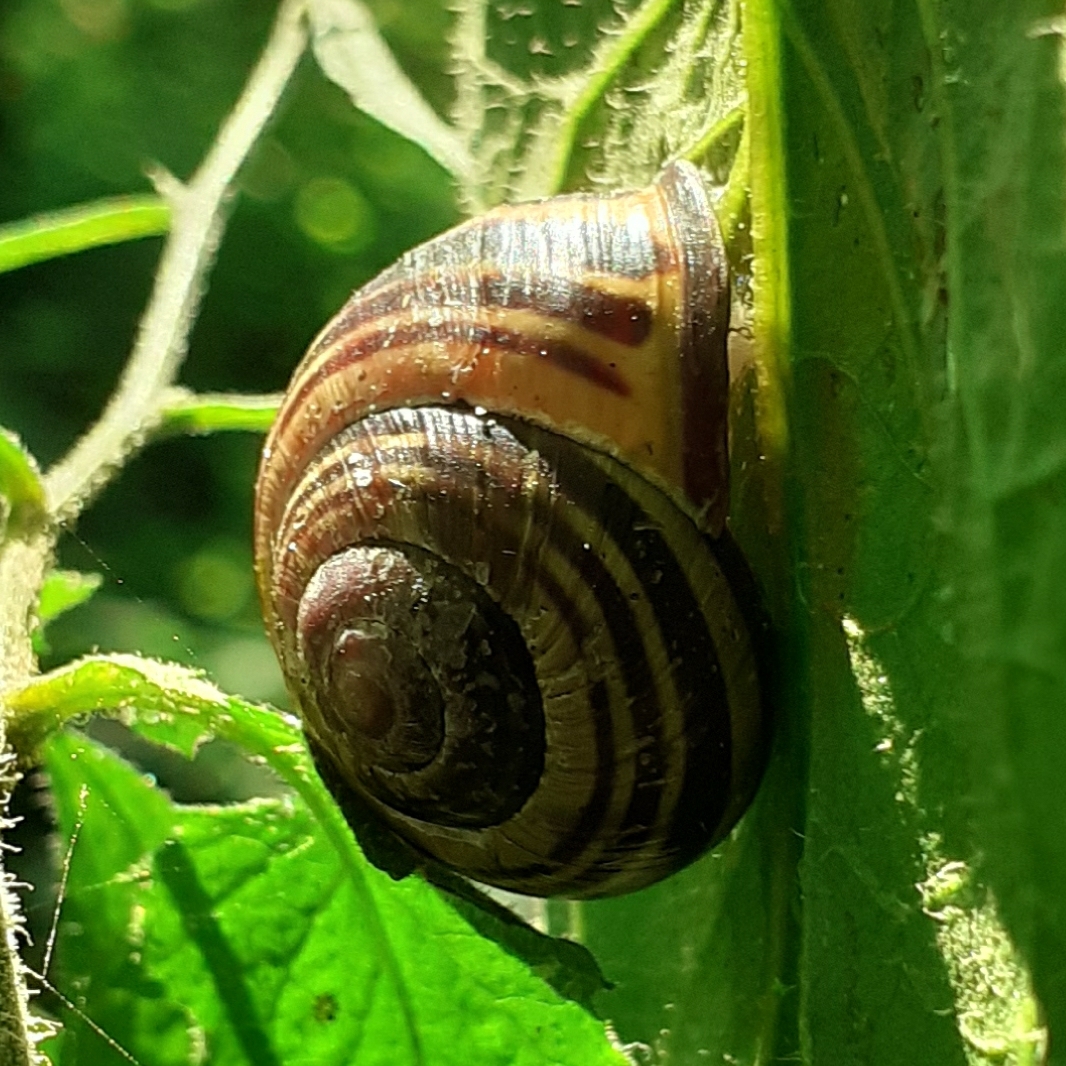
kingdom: Animalia
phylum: Mollusca
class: Gastropoda
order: Stylommatophora
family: Helicidae
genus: Cepaea
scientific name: Cepaea nemoralis
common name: Grovesnail
